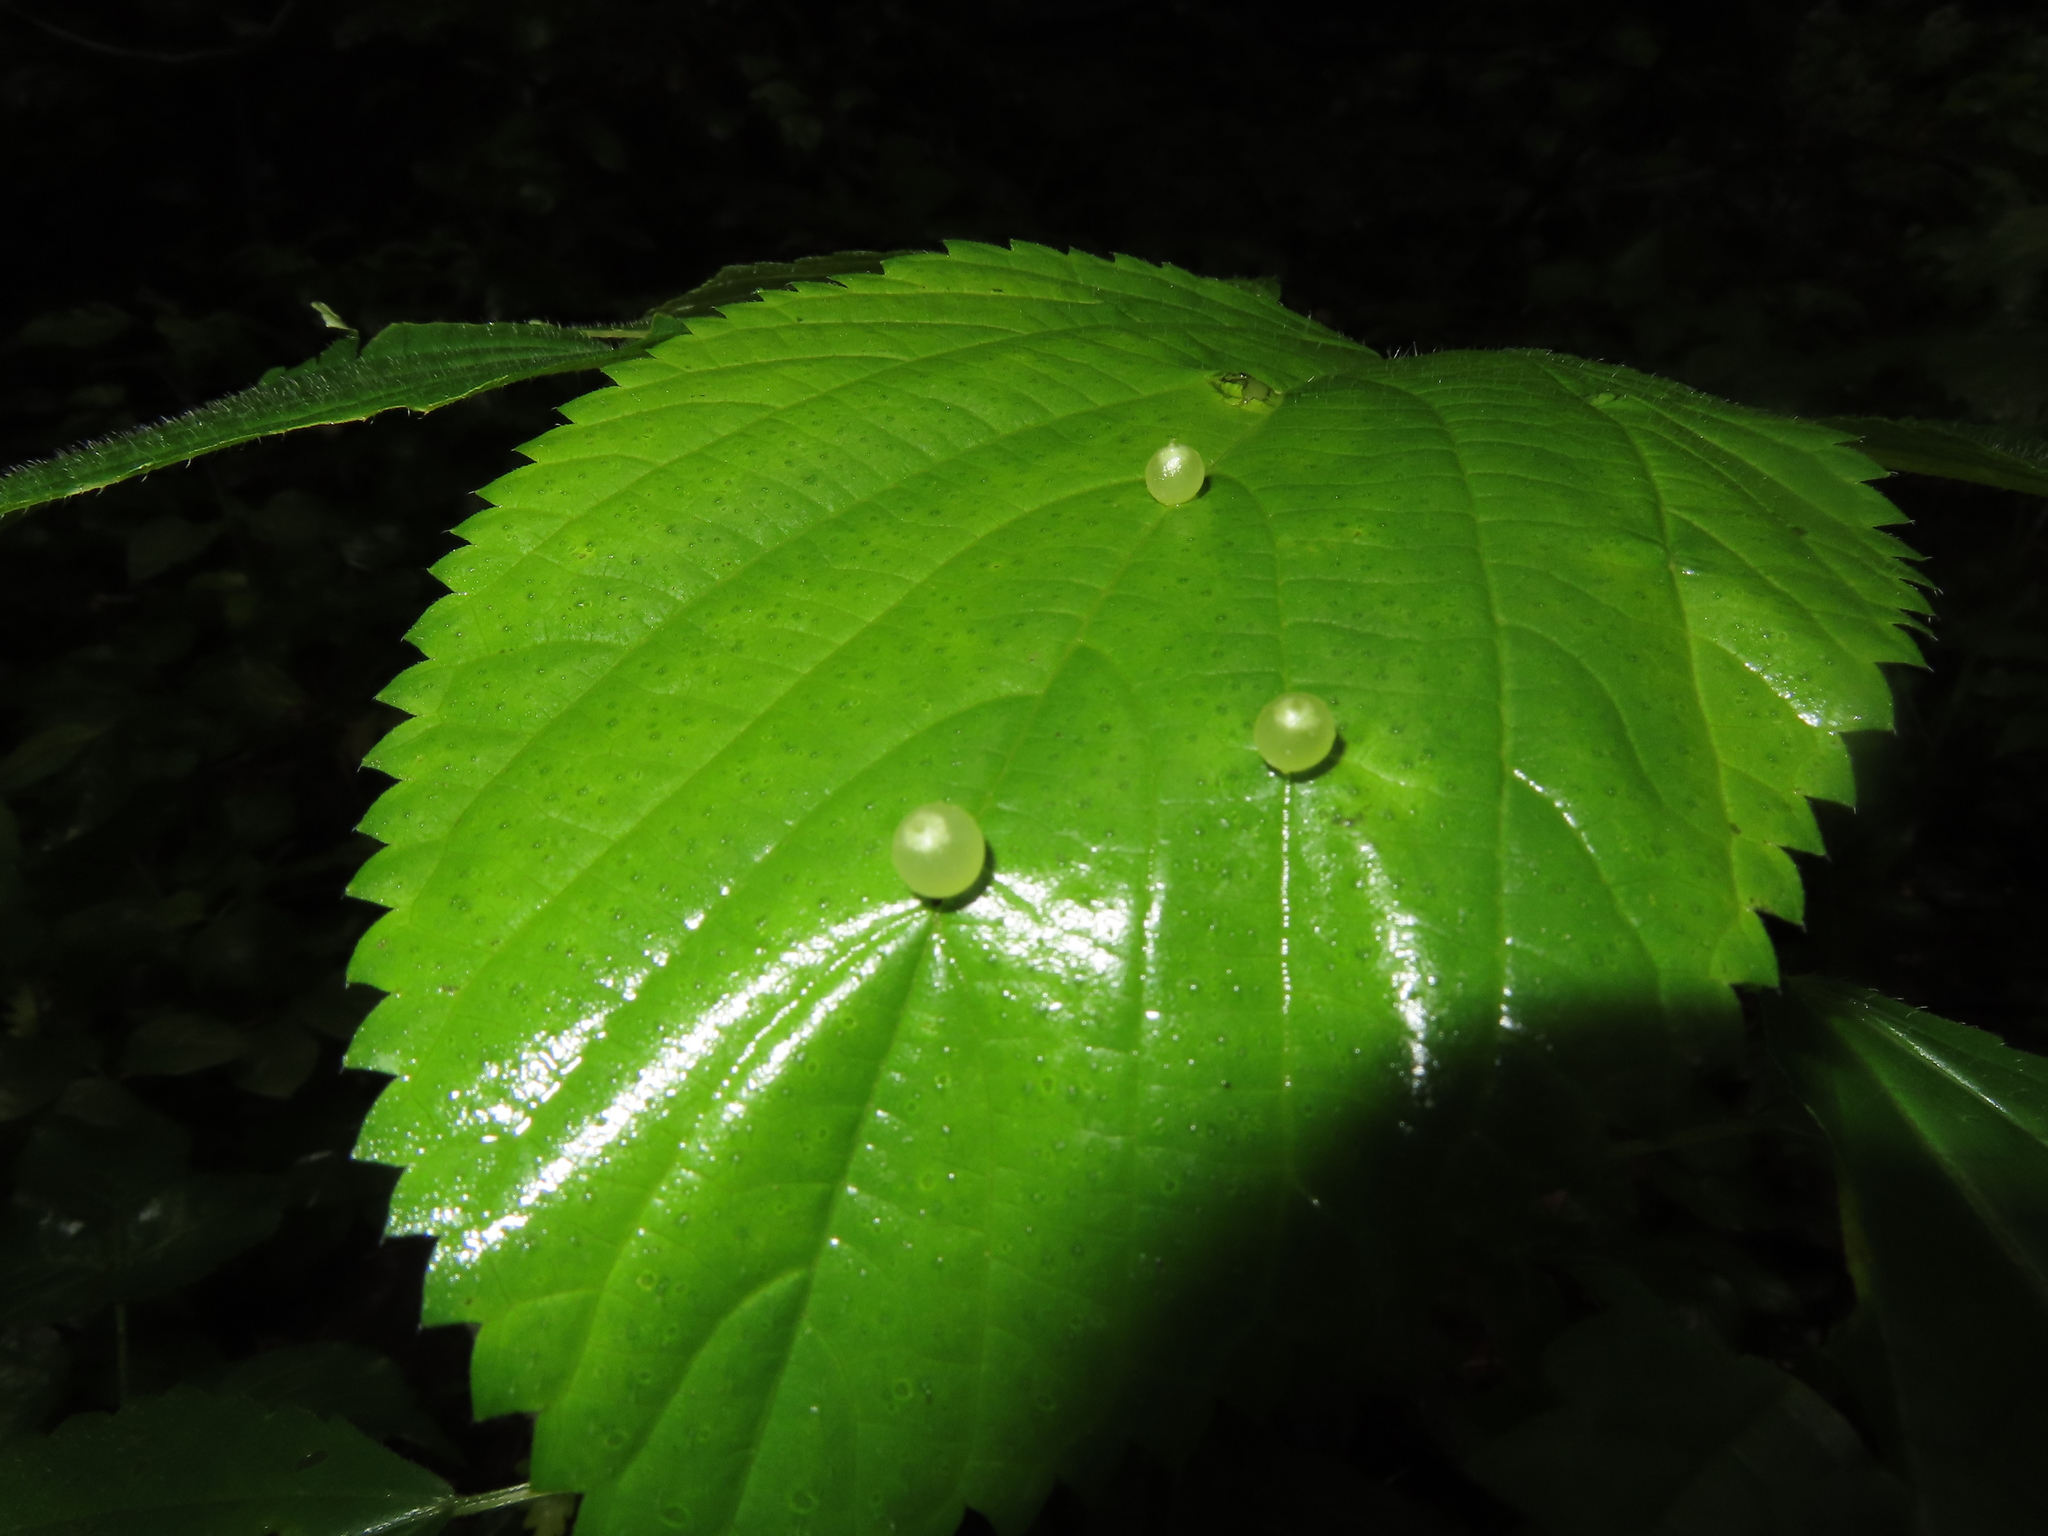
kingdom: Animalia
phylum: Arthropoda
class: Insecta
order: Diptera
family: Cecidomyiidae
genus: Dasineura
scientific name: Dasineura investita
